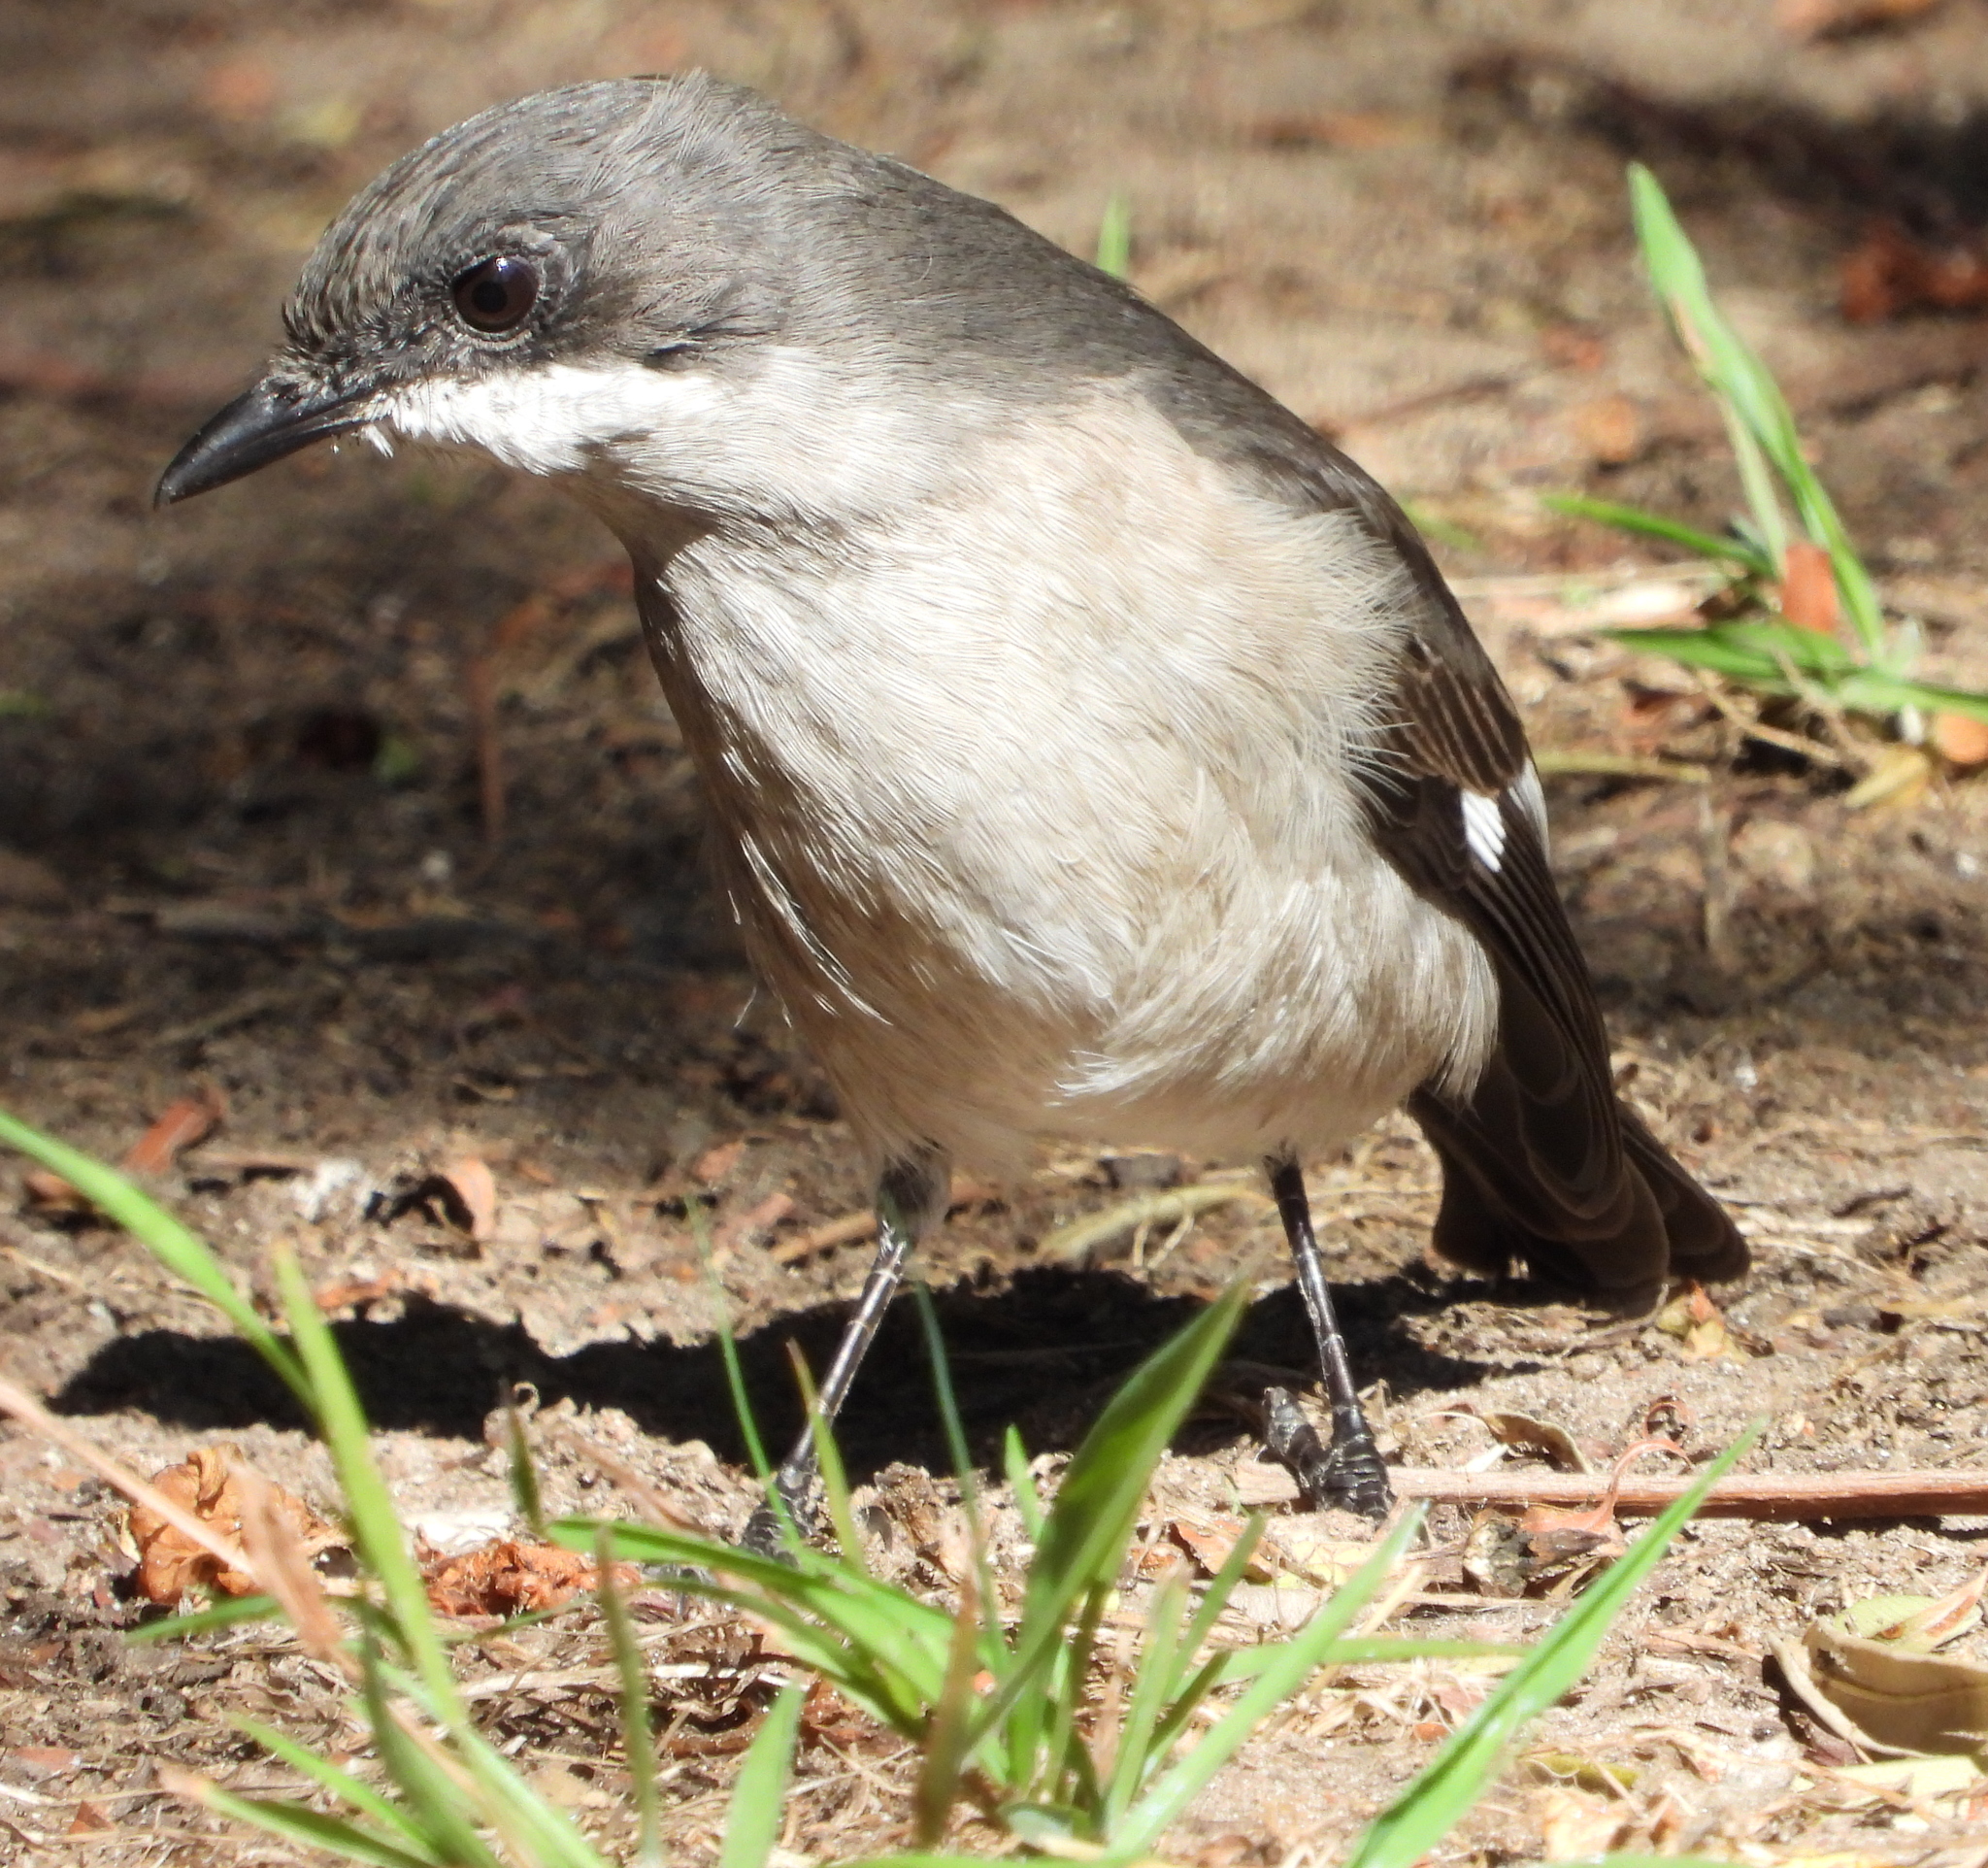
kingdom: Animalia
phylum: Chordata
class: Aves
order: Passeriformes
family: Muscicapidae
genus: Sigelus
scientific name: Sigelus silens
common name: Fiscal flycatcher
